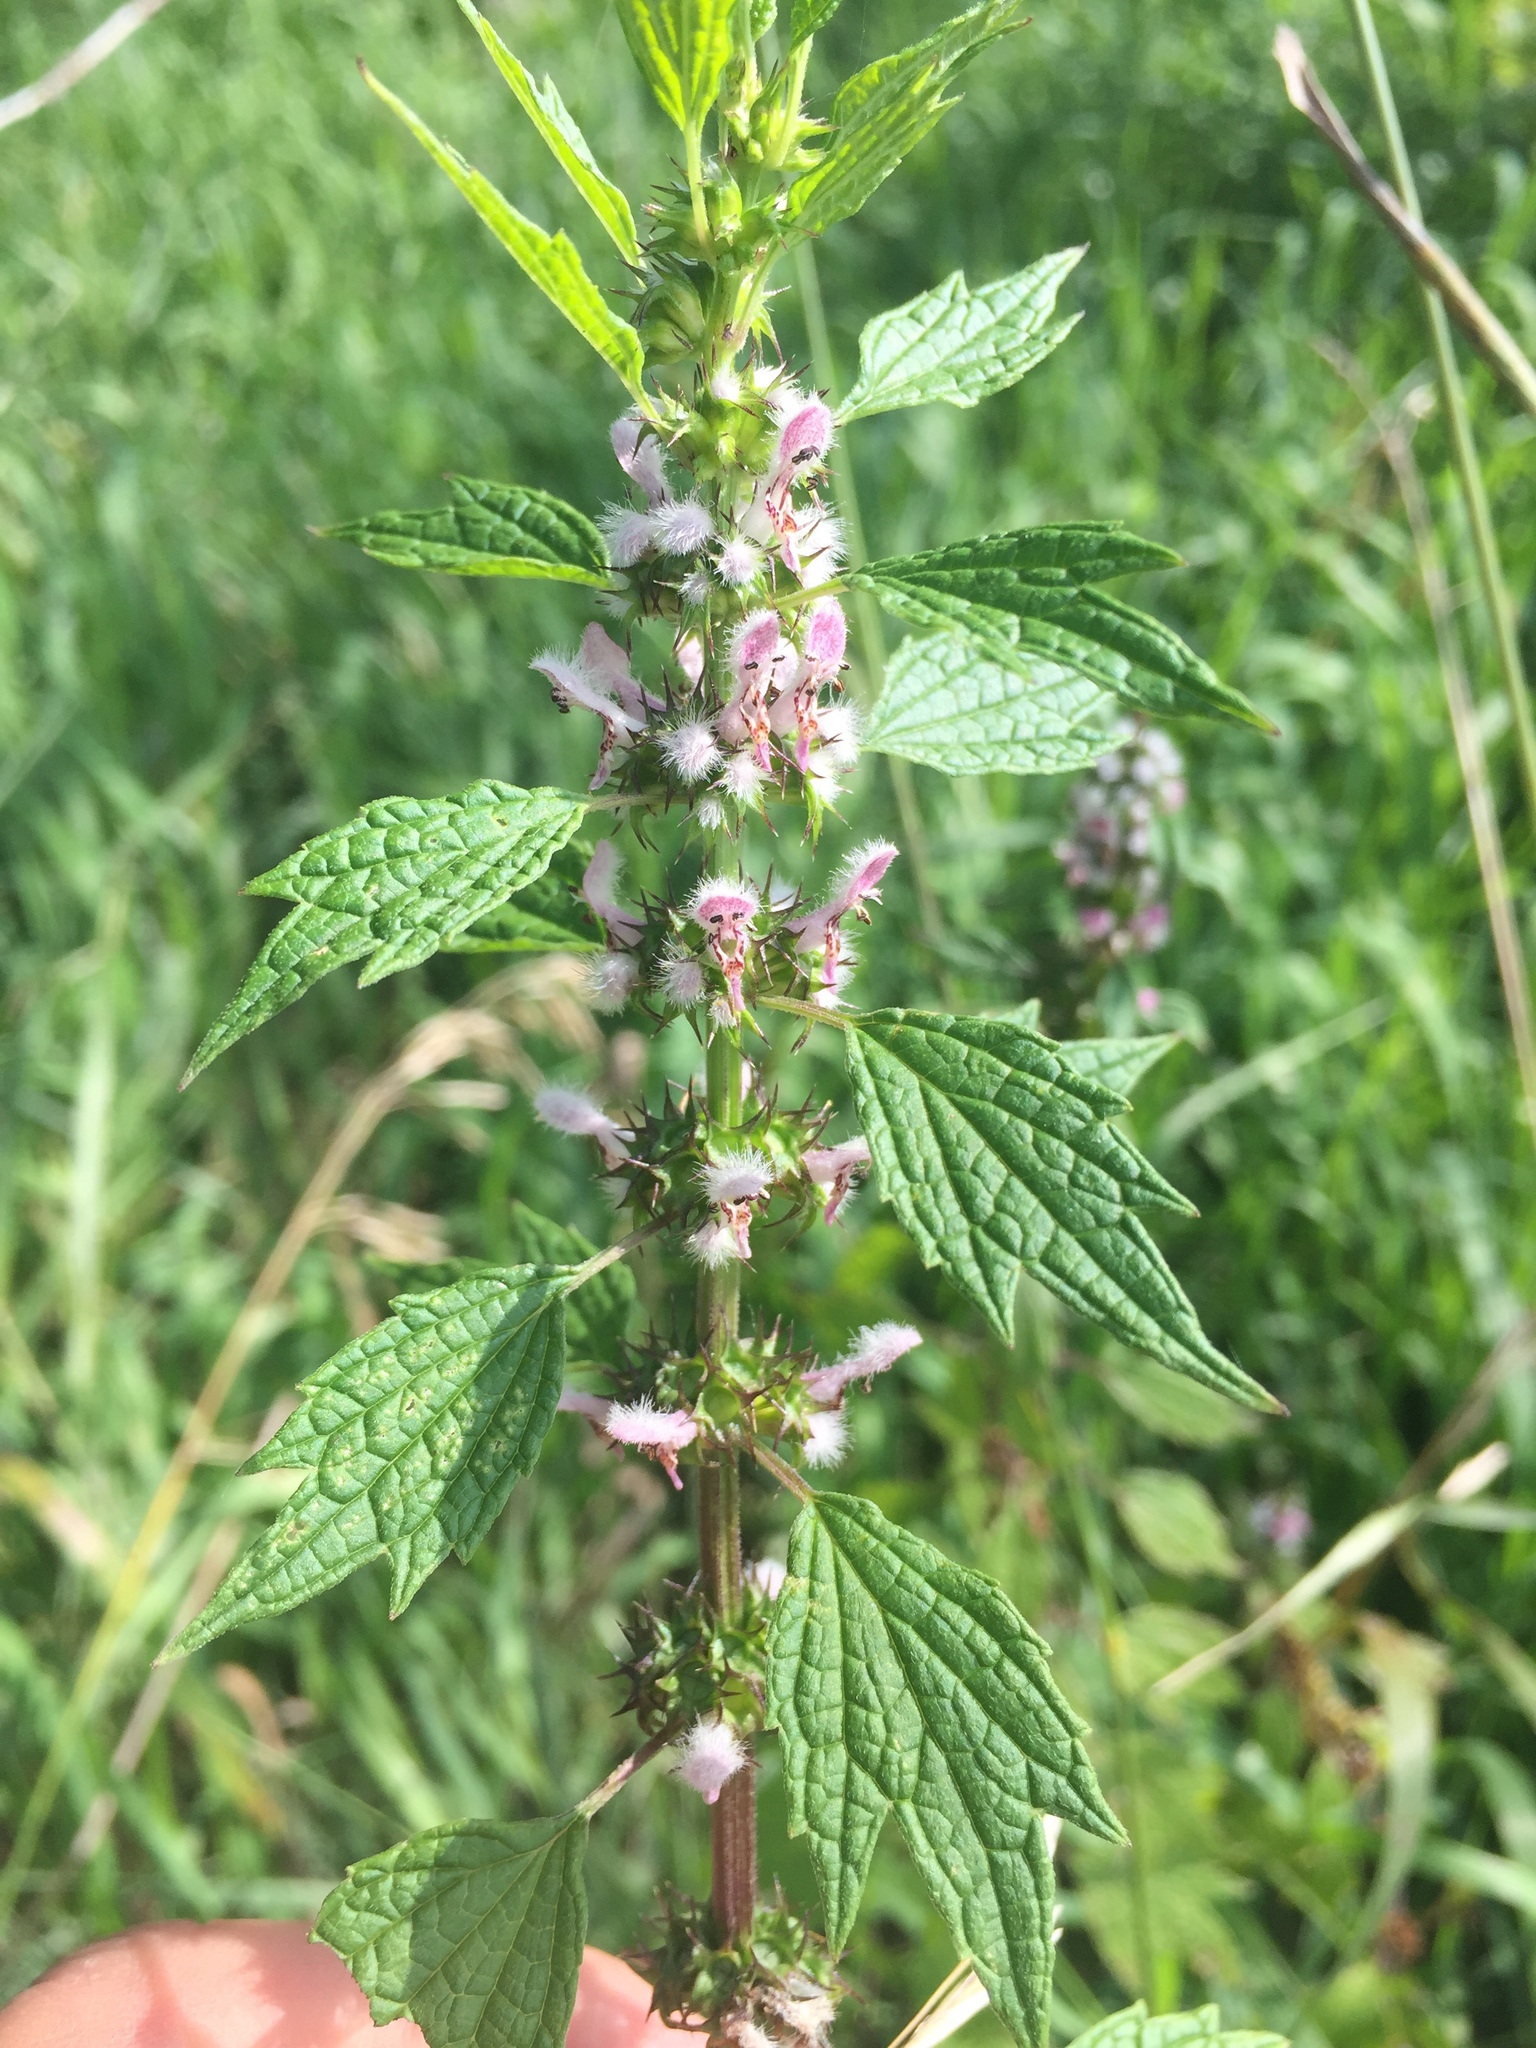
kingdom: Plantae
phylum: Tracheophyta
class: Magnoliopsida
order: Lamiales
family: Lamiaceae
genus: Leonurus
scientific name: Leonurus cardiaca
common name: Motherwort
